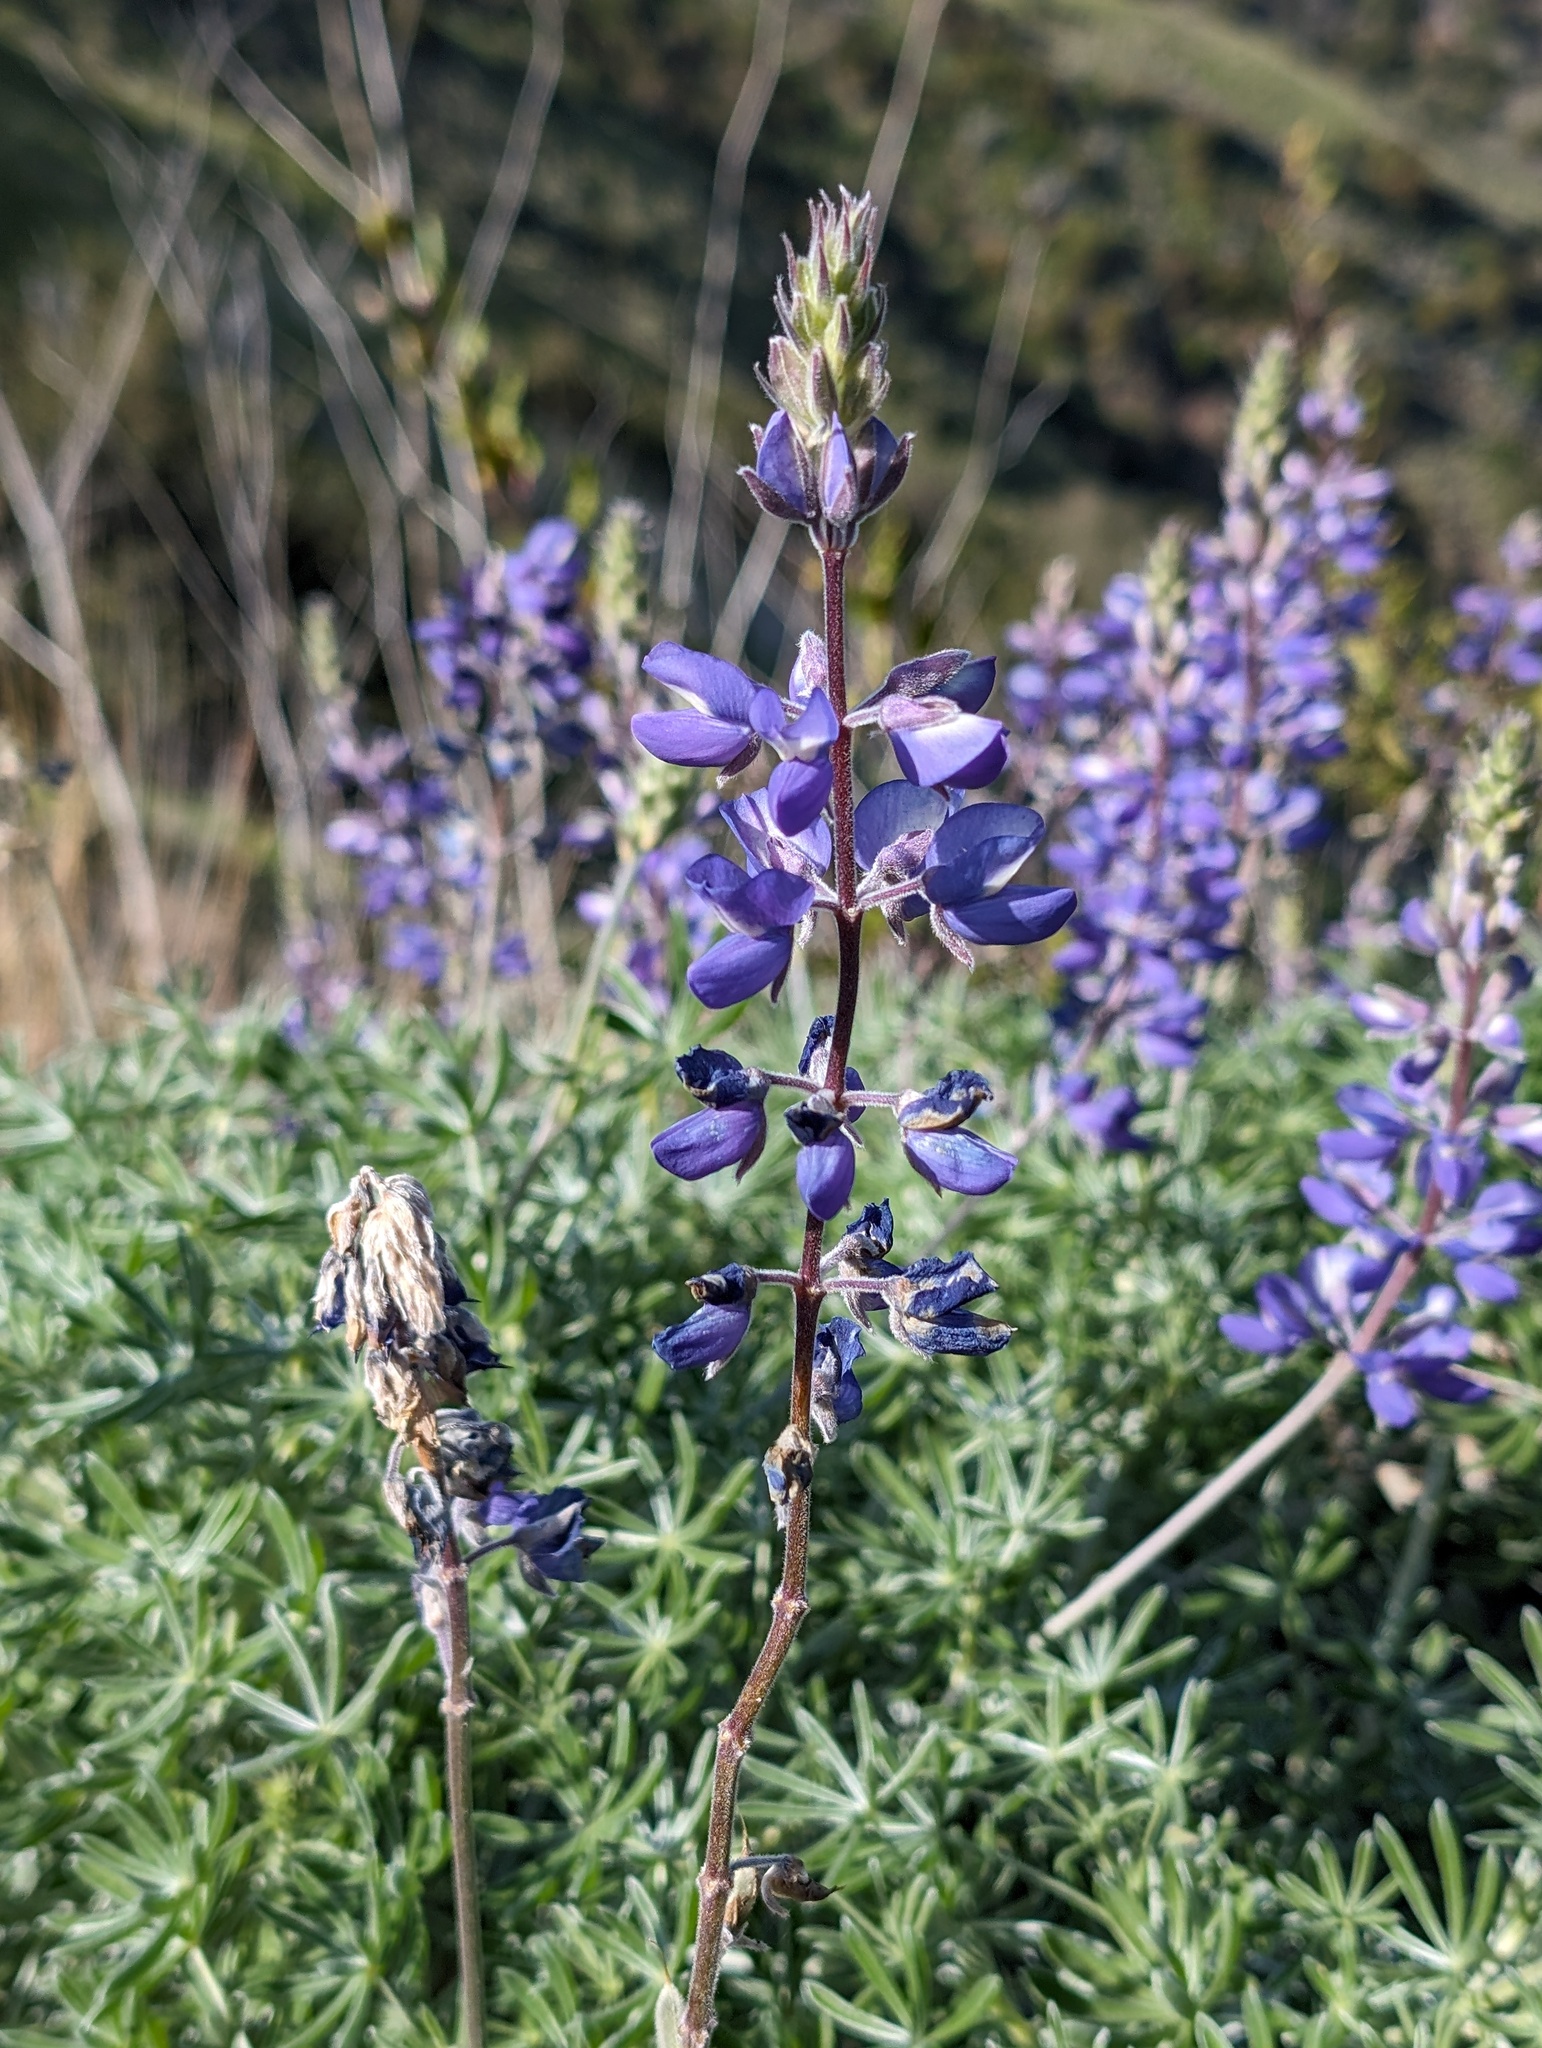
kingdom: Plantae
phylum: Tracheophyta
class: Magnoliopsida
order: Fabales
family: Fabaceae
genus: Lupinus
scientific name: Lupinus albifrons
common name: Foothill lupine
